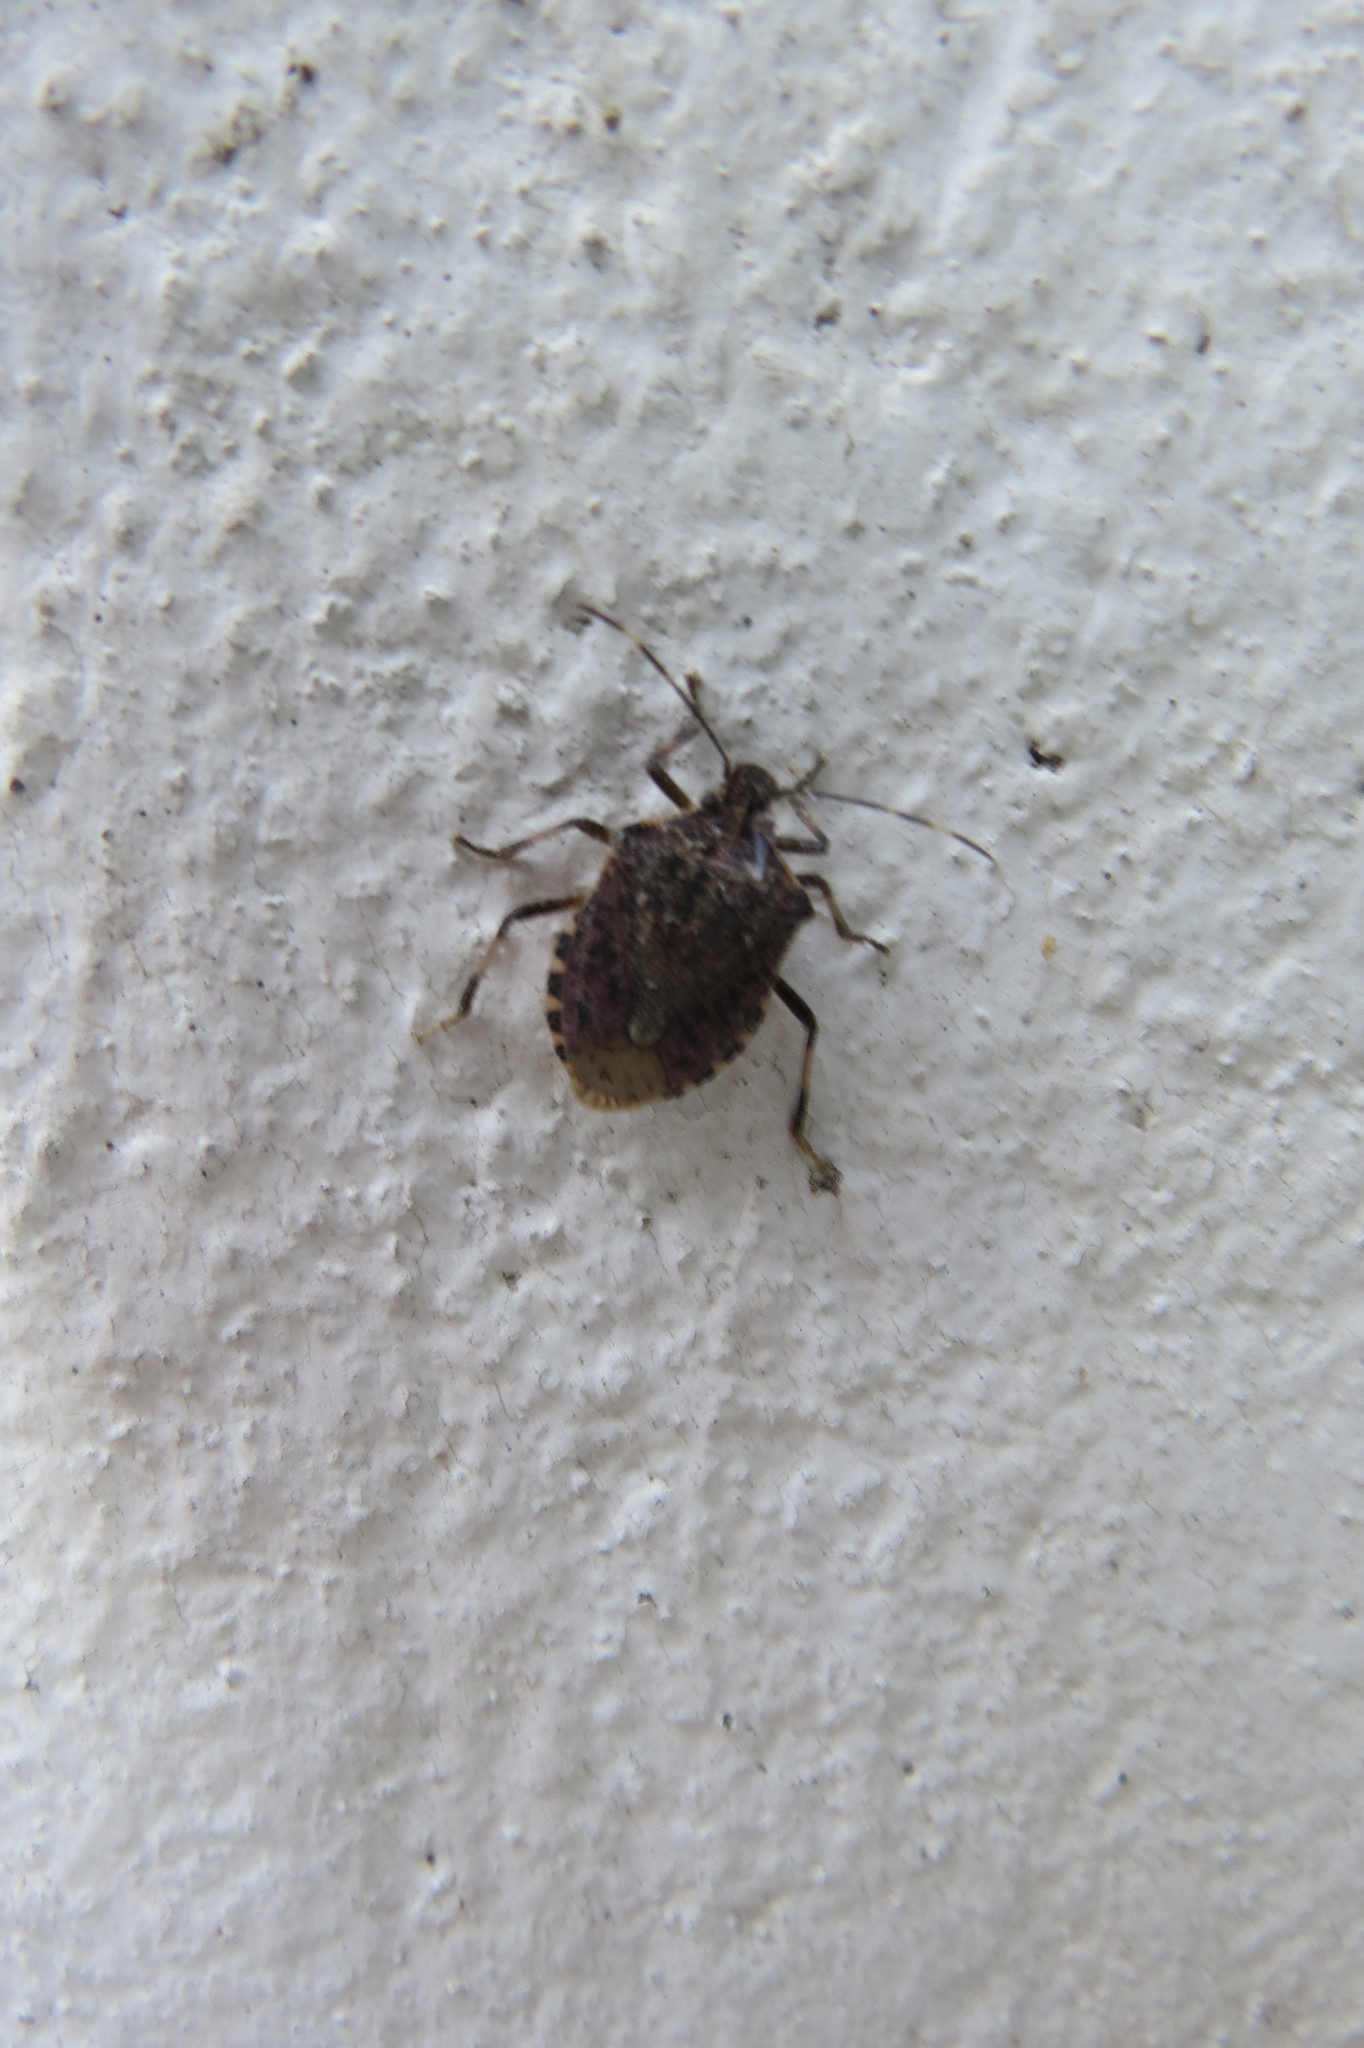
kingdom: Animalia
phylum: Arthropoda
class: Insecta
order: Hemiptera
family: Pentatomidae
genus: Halyomorpha
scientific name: Halyomorpha halys
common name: Brown marmorated stink bug
